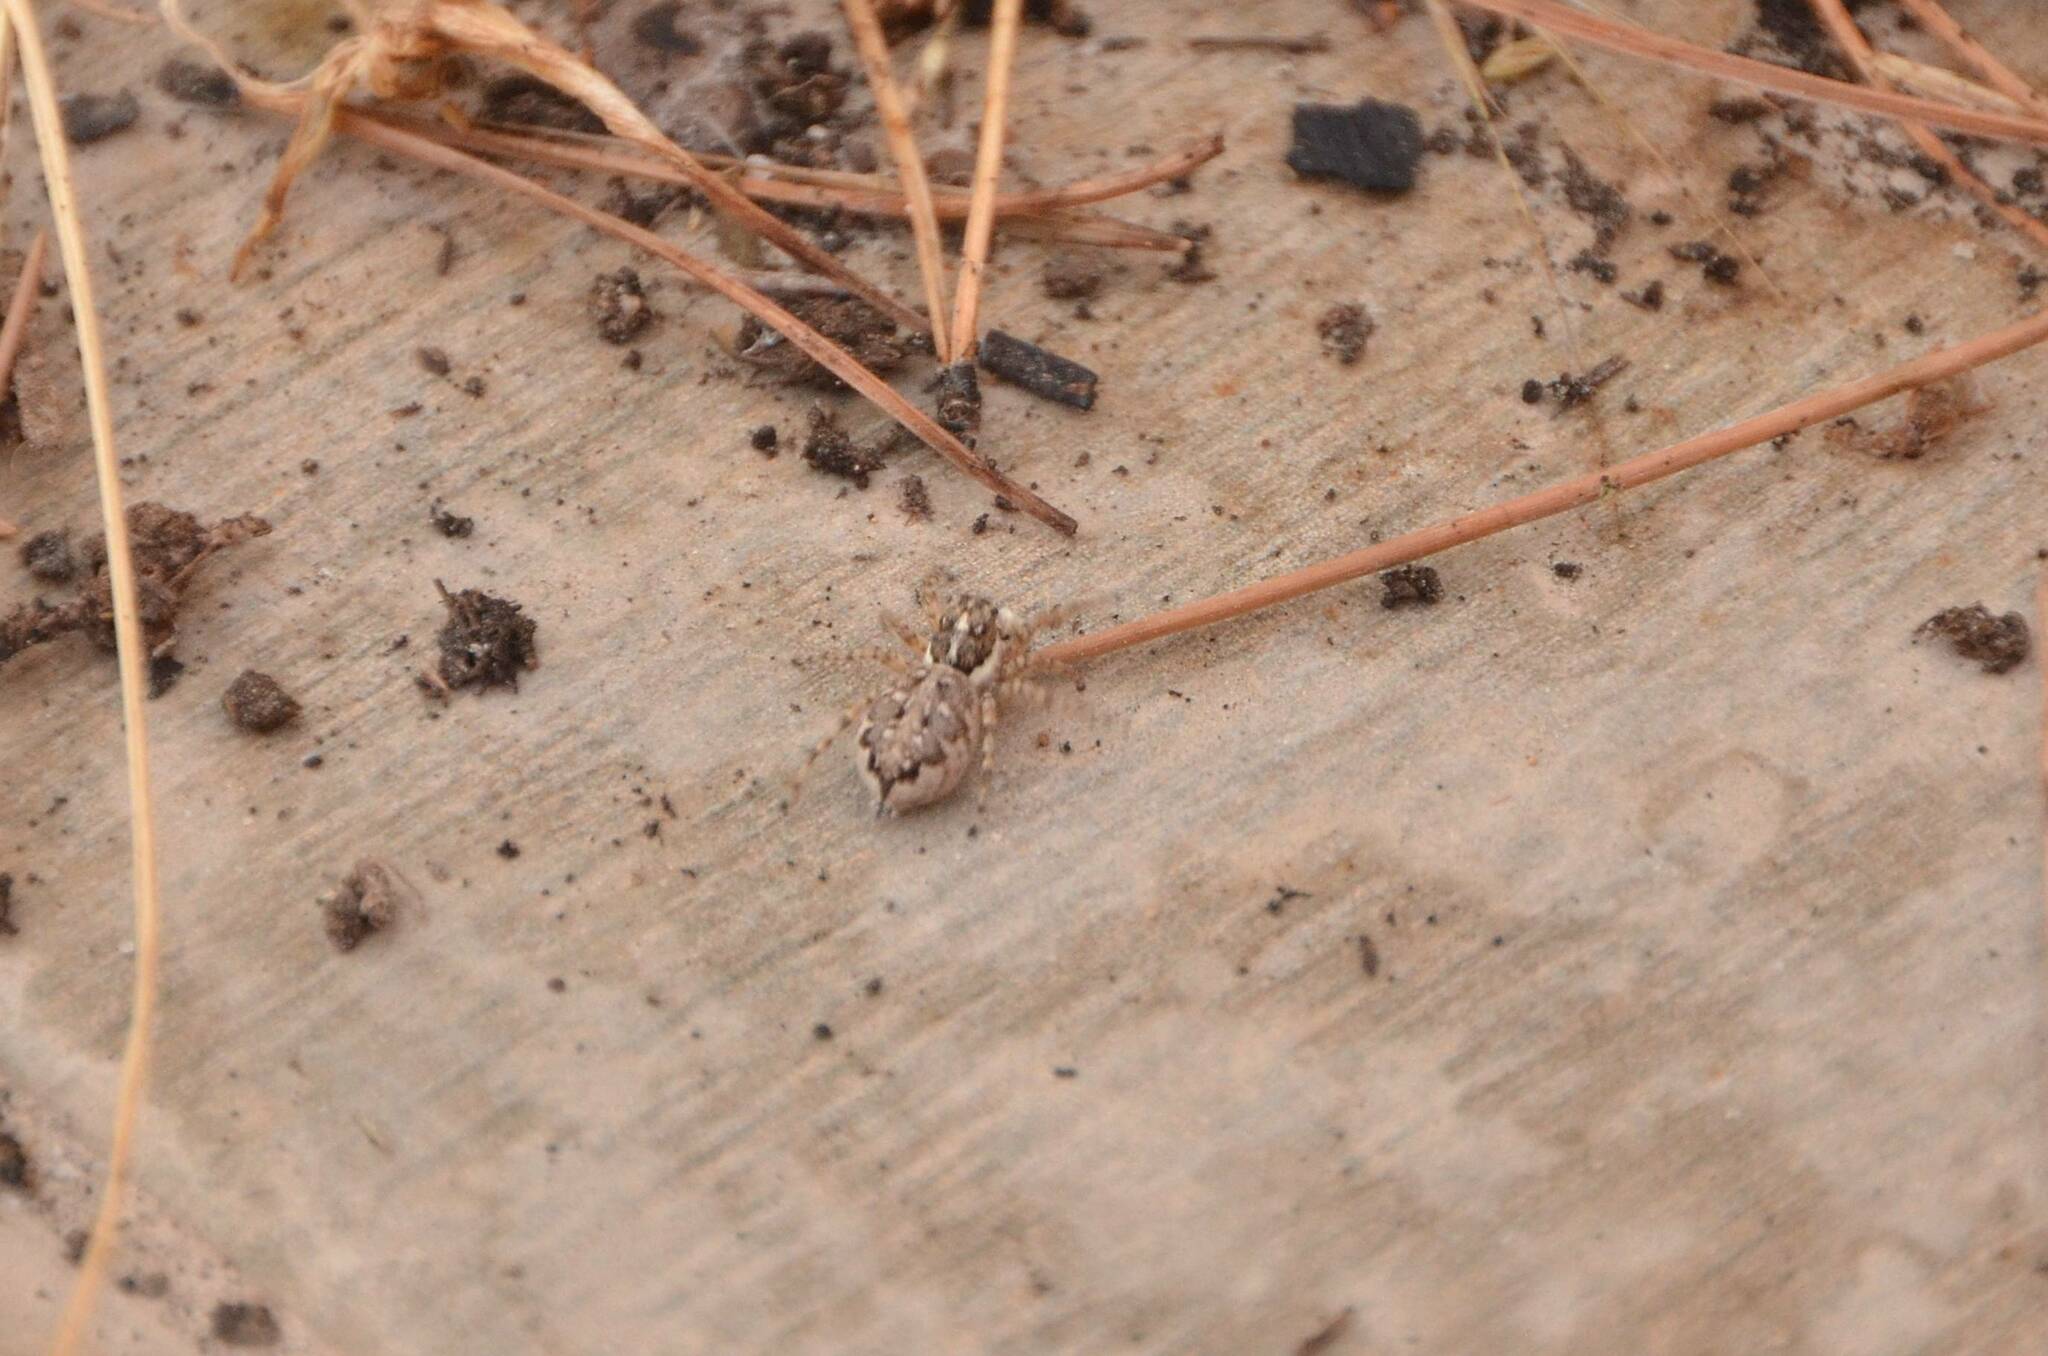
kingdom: Animalia
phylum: Arthropoda
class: Arachnida
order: Araneae
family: Salticidae
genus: Menemerus
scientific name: Menemerus semilimbatus
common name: Jumping spider
